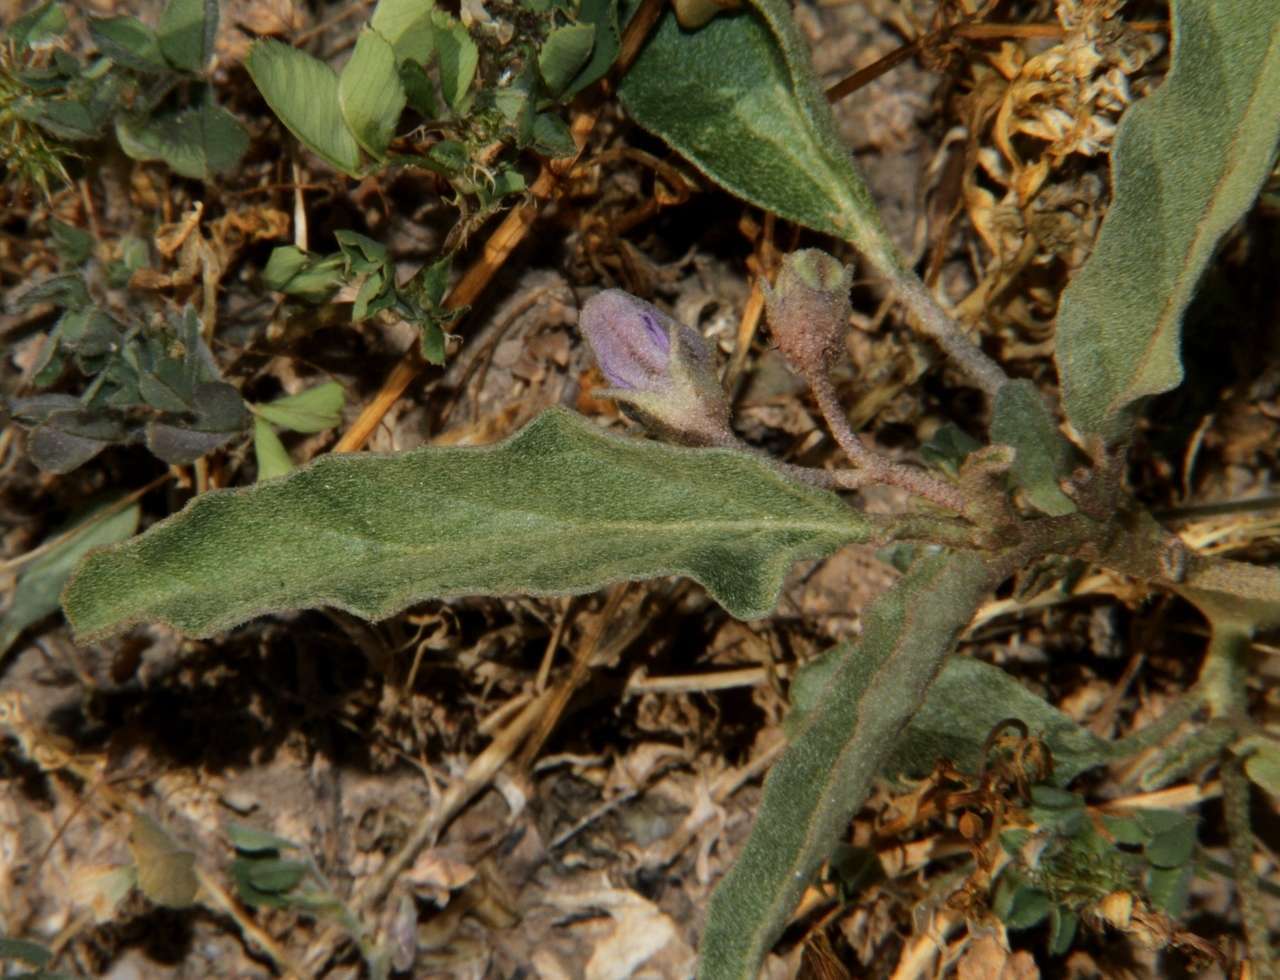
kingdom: Plantae
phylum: Tracheophyta
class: Magnoliopsida
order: Solanales
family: Solanaceae
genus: Solanum
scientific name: Solanum esuriale
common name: Wild tomato
